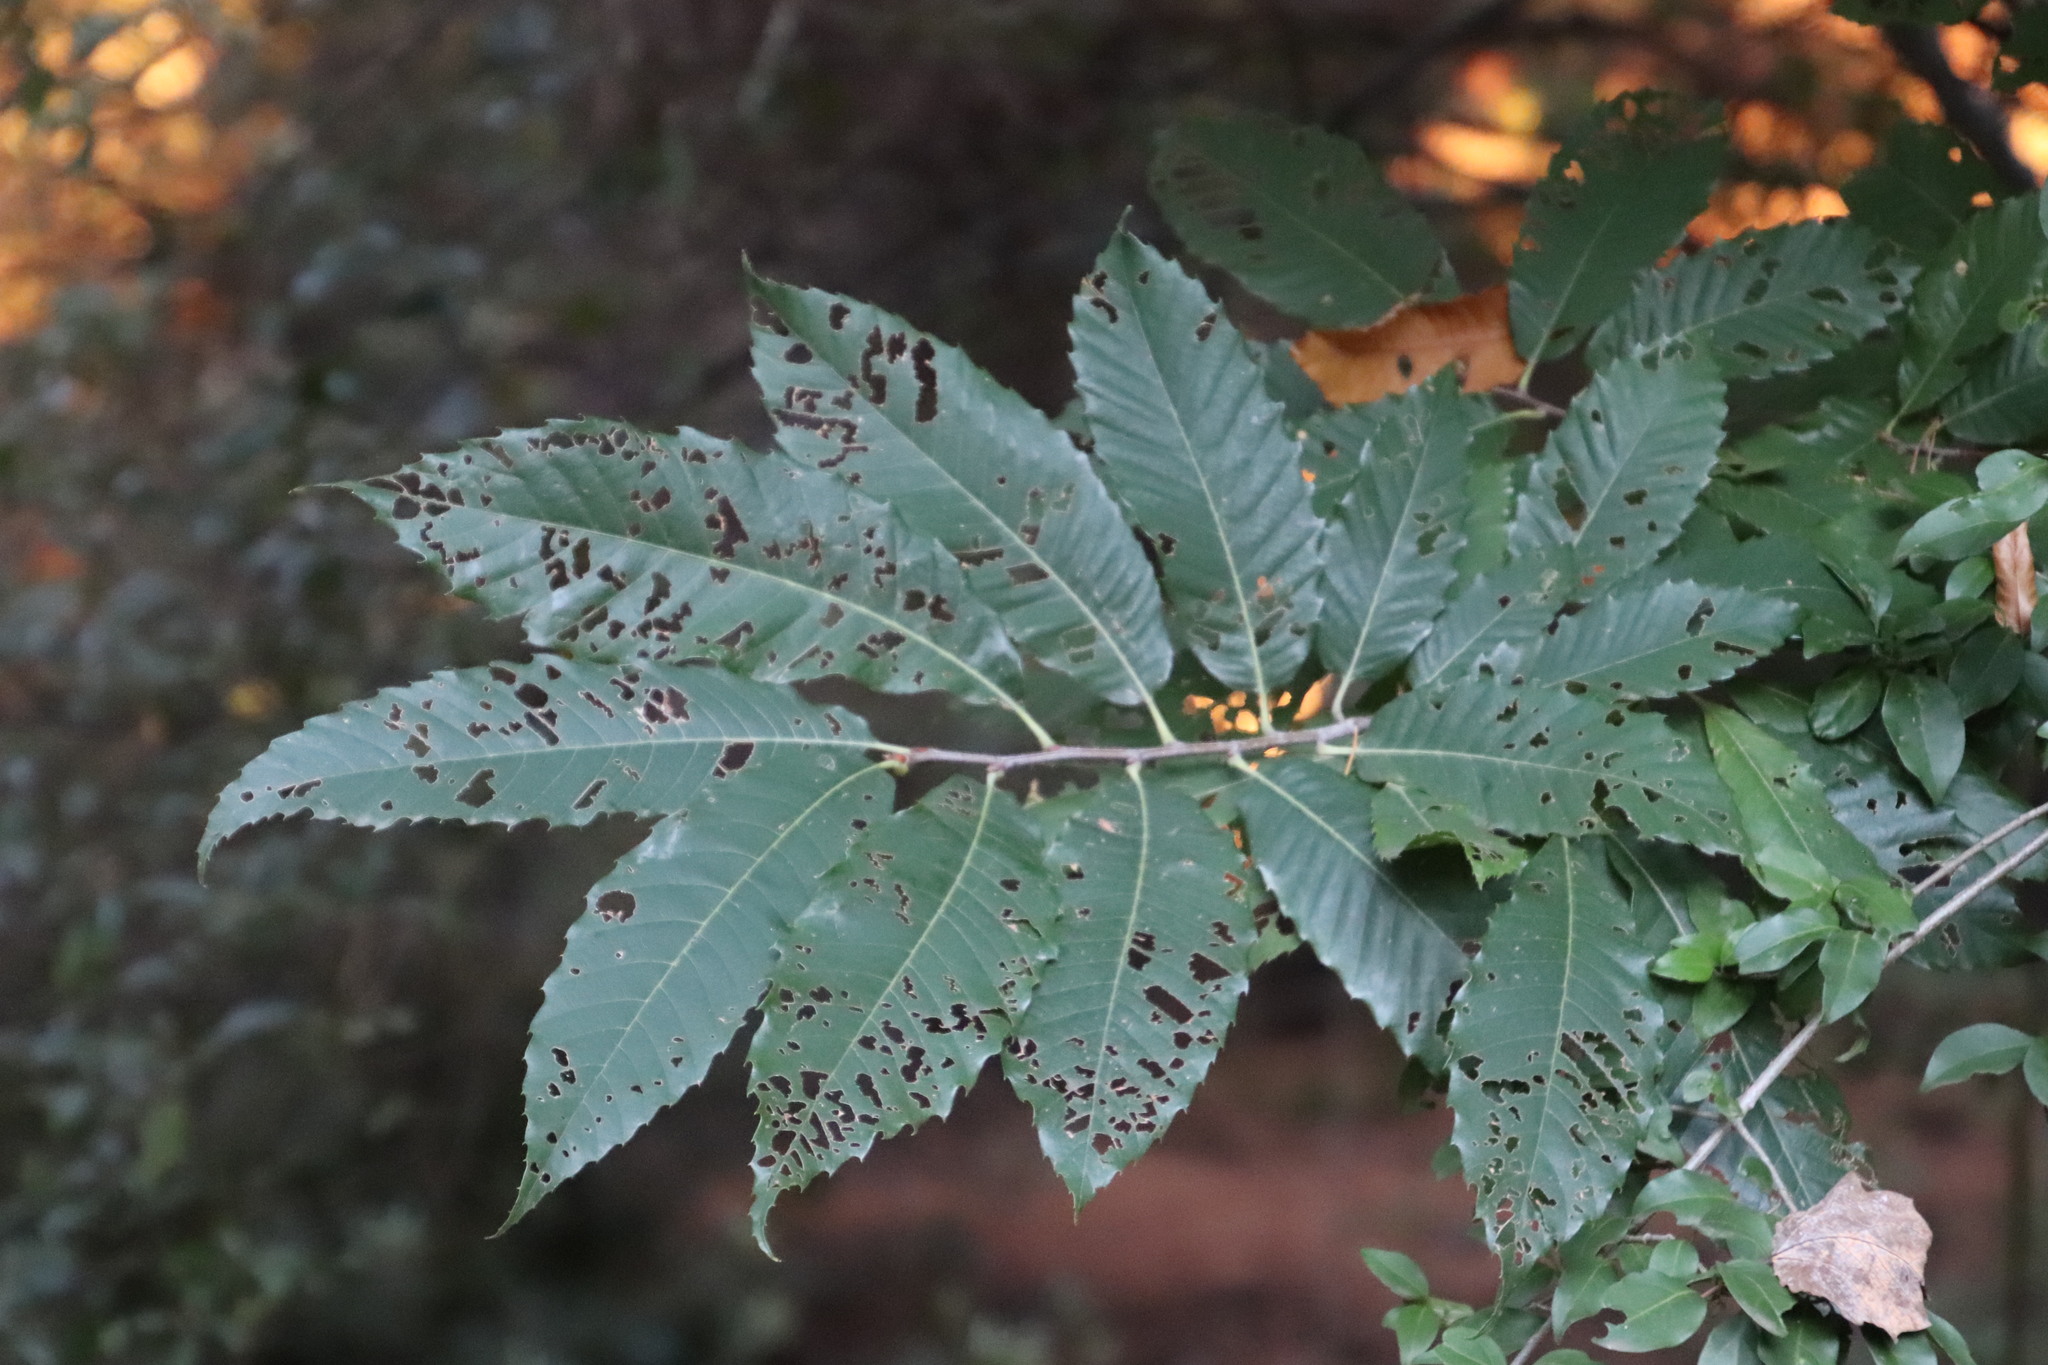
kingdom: Plantae
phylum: Tracheophyta
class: Magnoliopsida
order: Fagales
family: Fagaceae
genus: Castanea
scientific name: Castanea sativa
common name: Sweet chestnut
